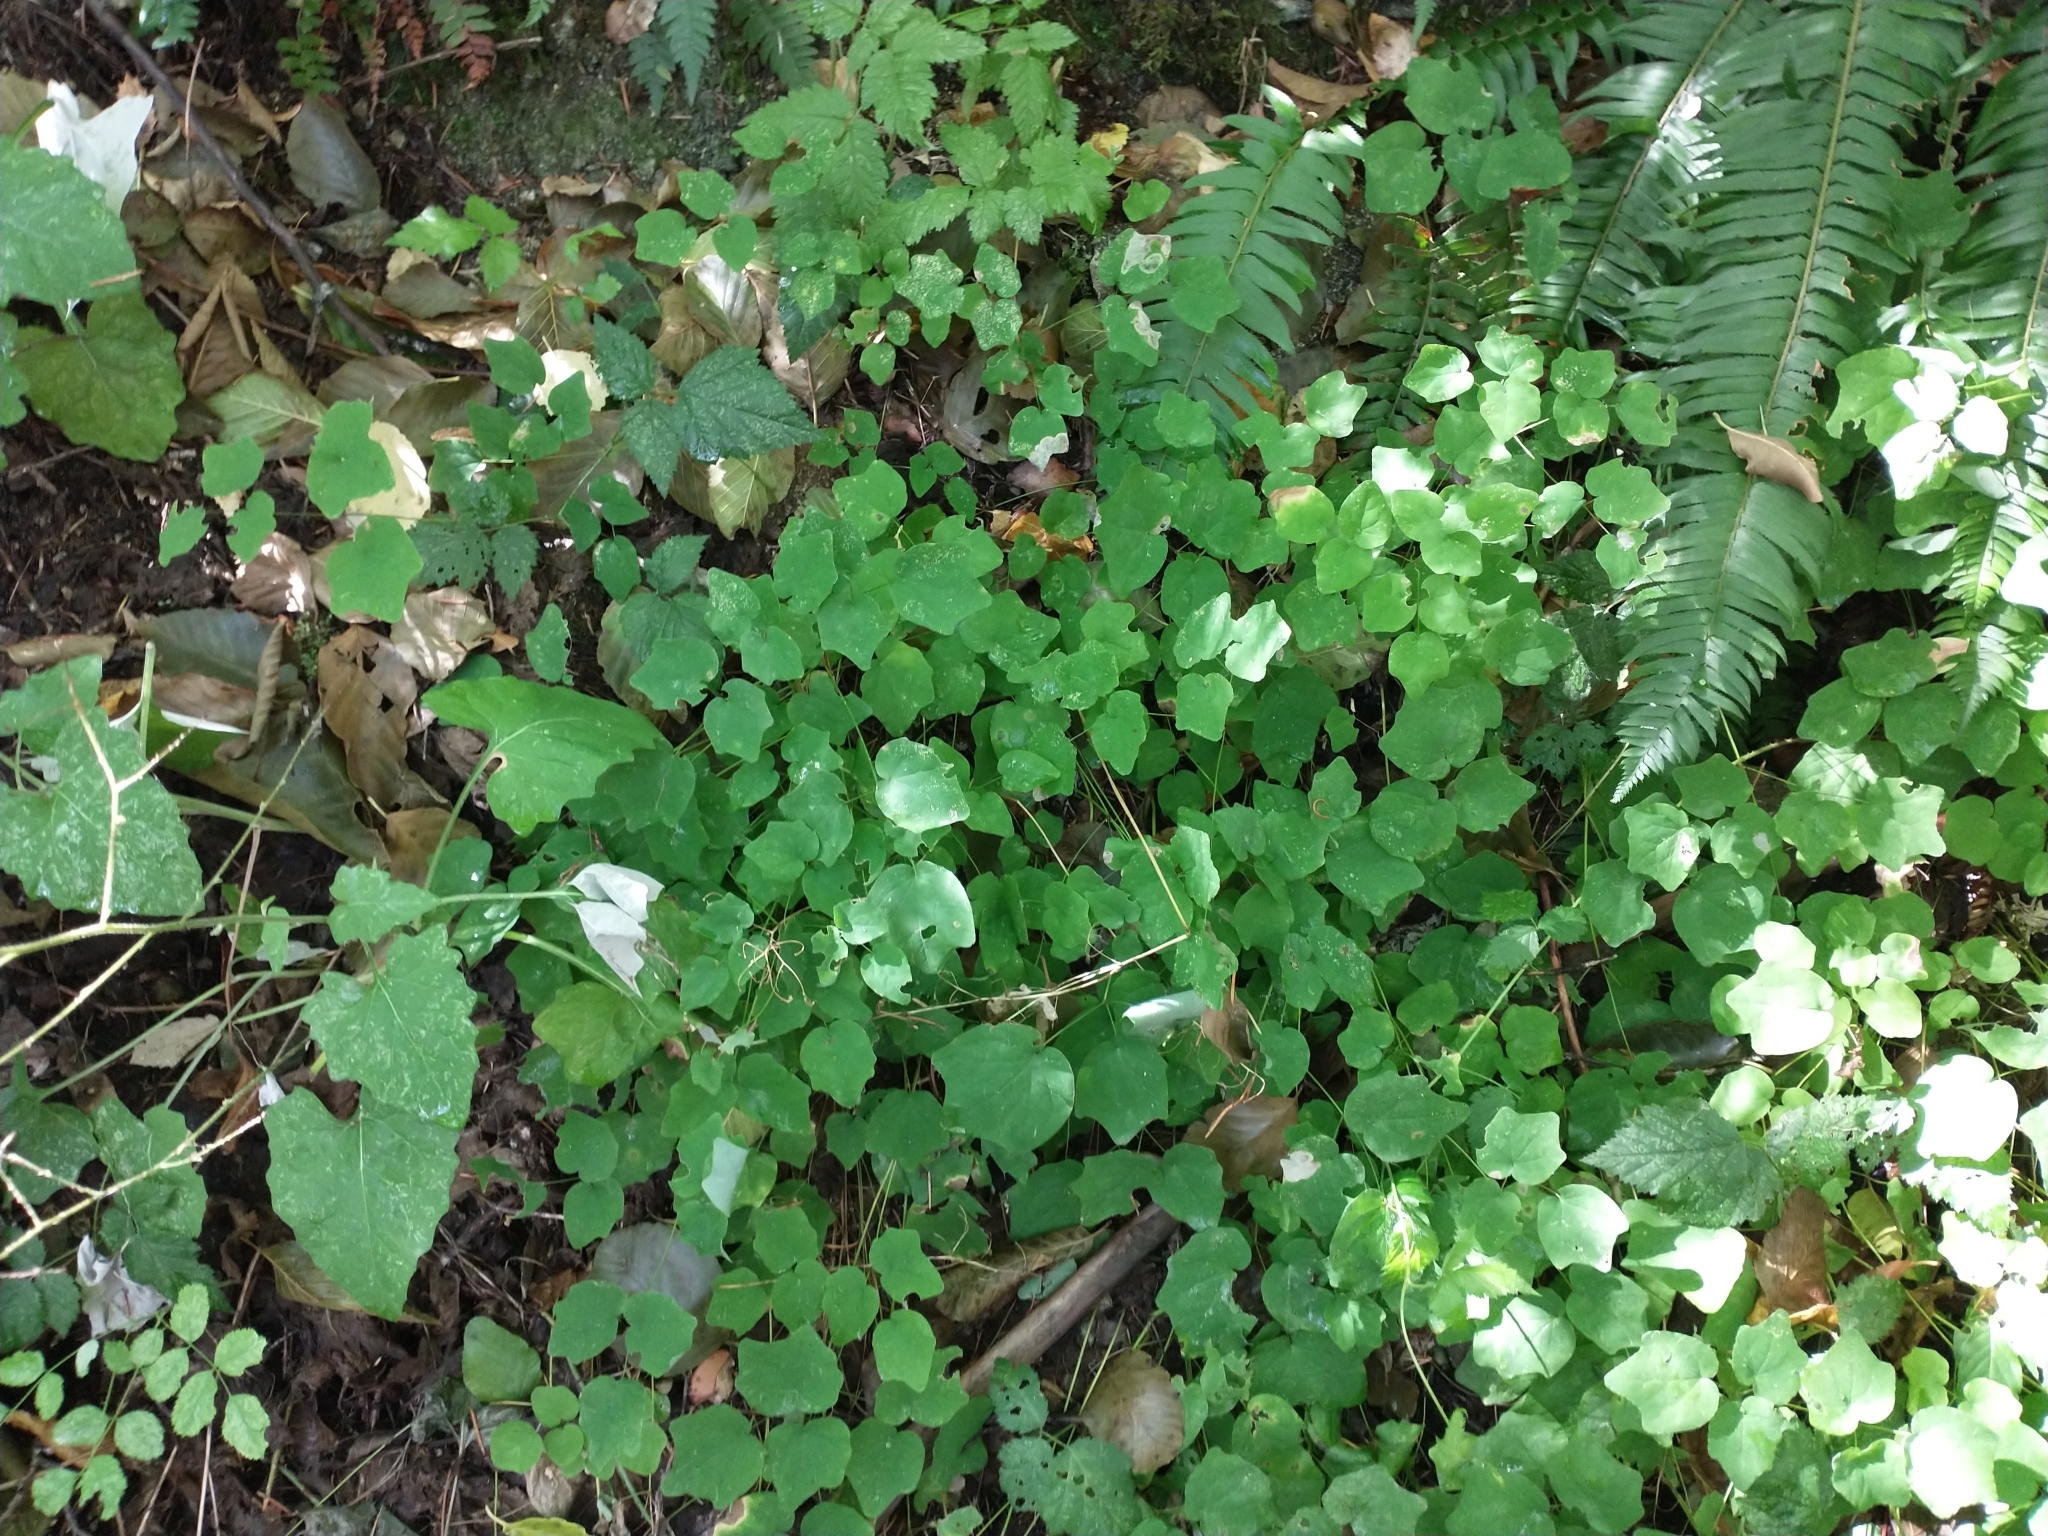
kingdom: Plantae
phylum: Tracheophyta
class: Magnoliopsida
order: Asterales
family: Asteraceae
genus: Adenocaulon
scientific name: Adenocaulon bicolor
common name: Trailplant
